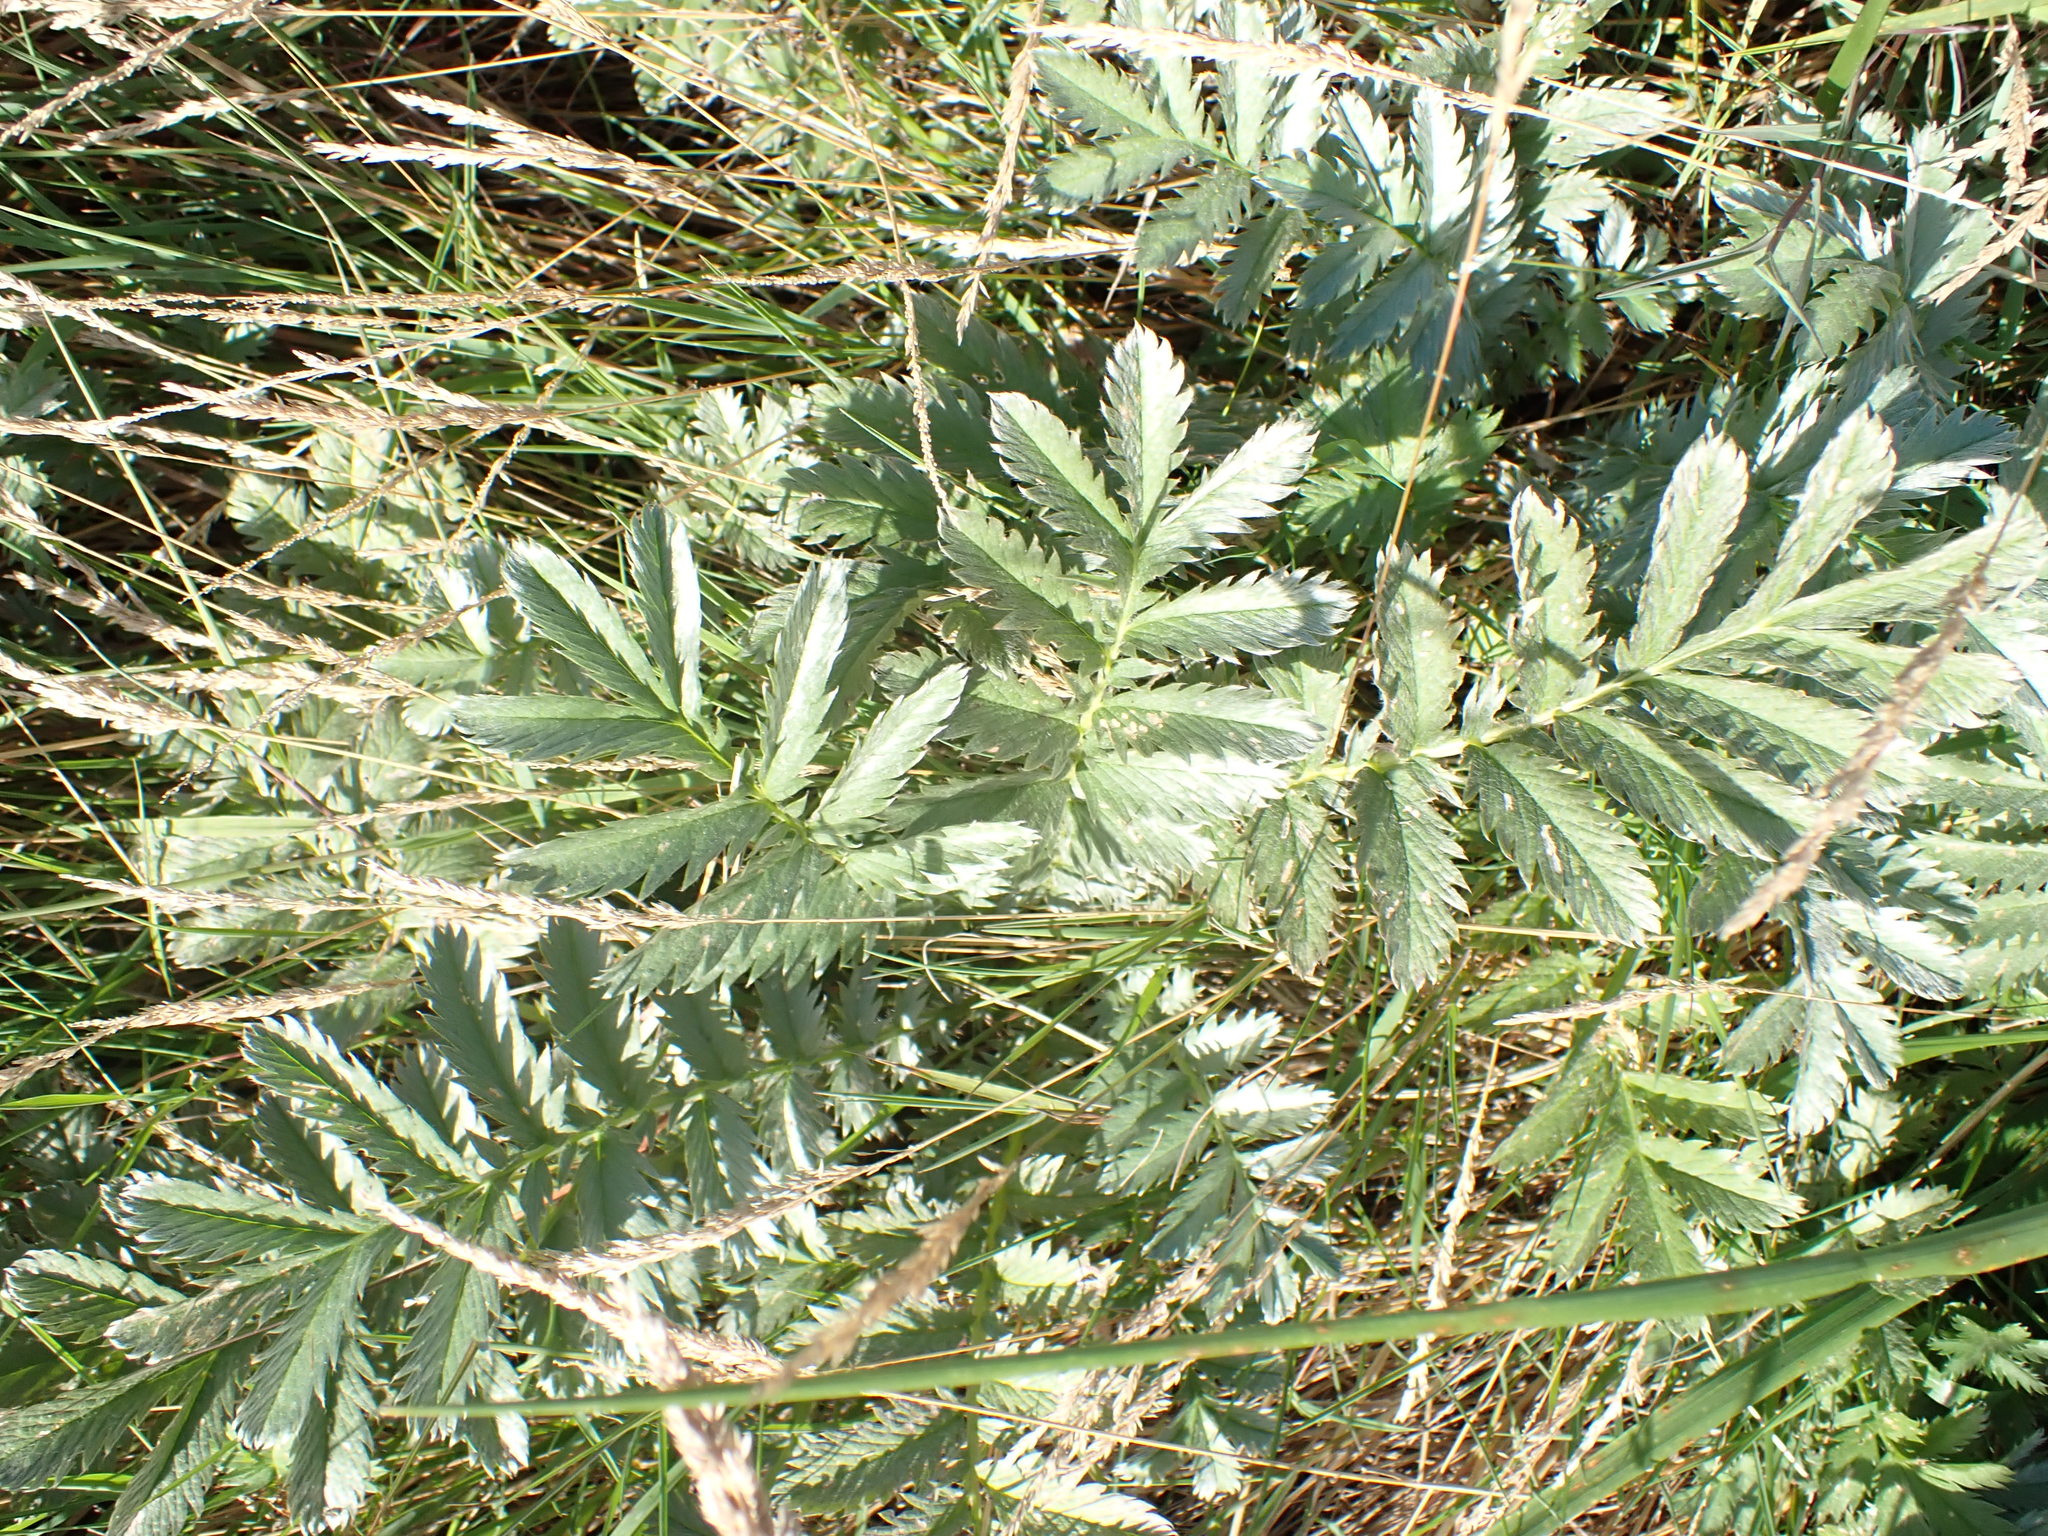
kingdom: Plantae
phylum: Tracheophyta
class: Magnoliopsida
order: Rosales
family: Rosaceae
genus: Argentina
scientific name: Argentina anserina
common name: Common silverweed
